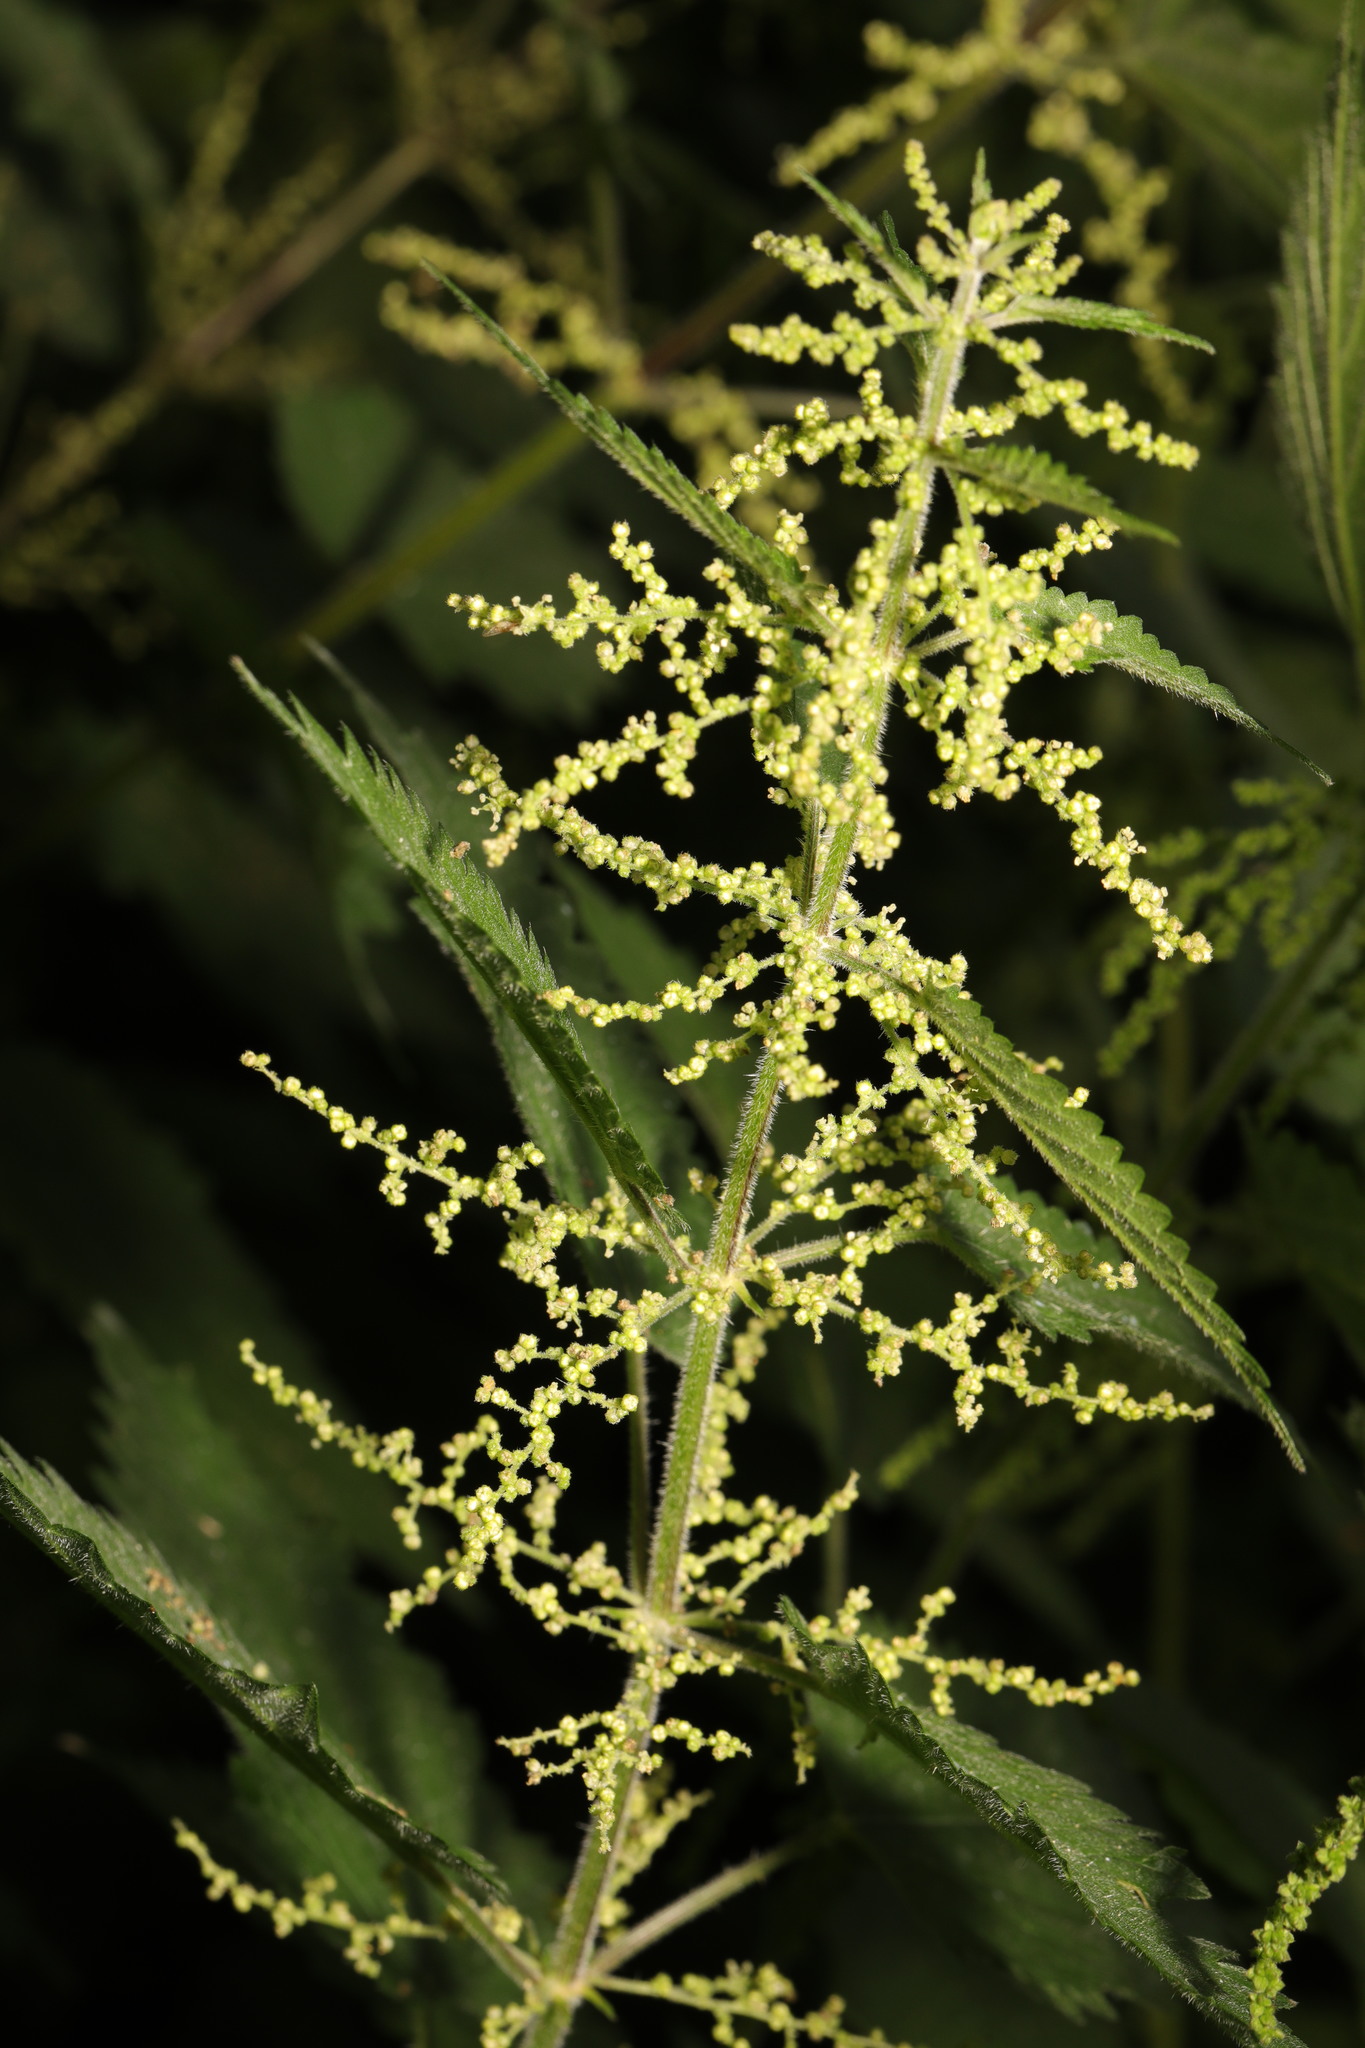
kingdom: Plantae
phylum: Tracheophyta
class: Magnoliopsida
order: Rosales
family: Urticaceae
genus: Urtica
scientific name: Urtica dioica
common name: Common nettle
